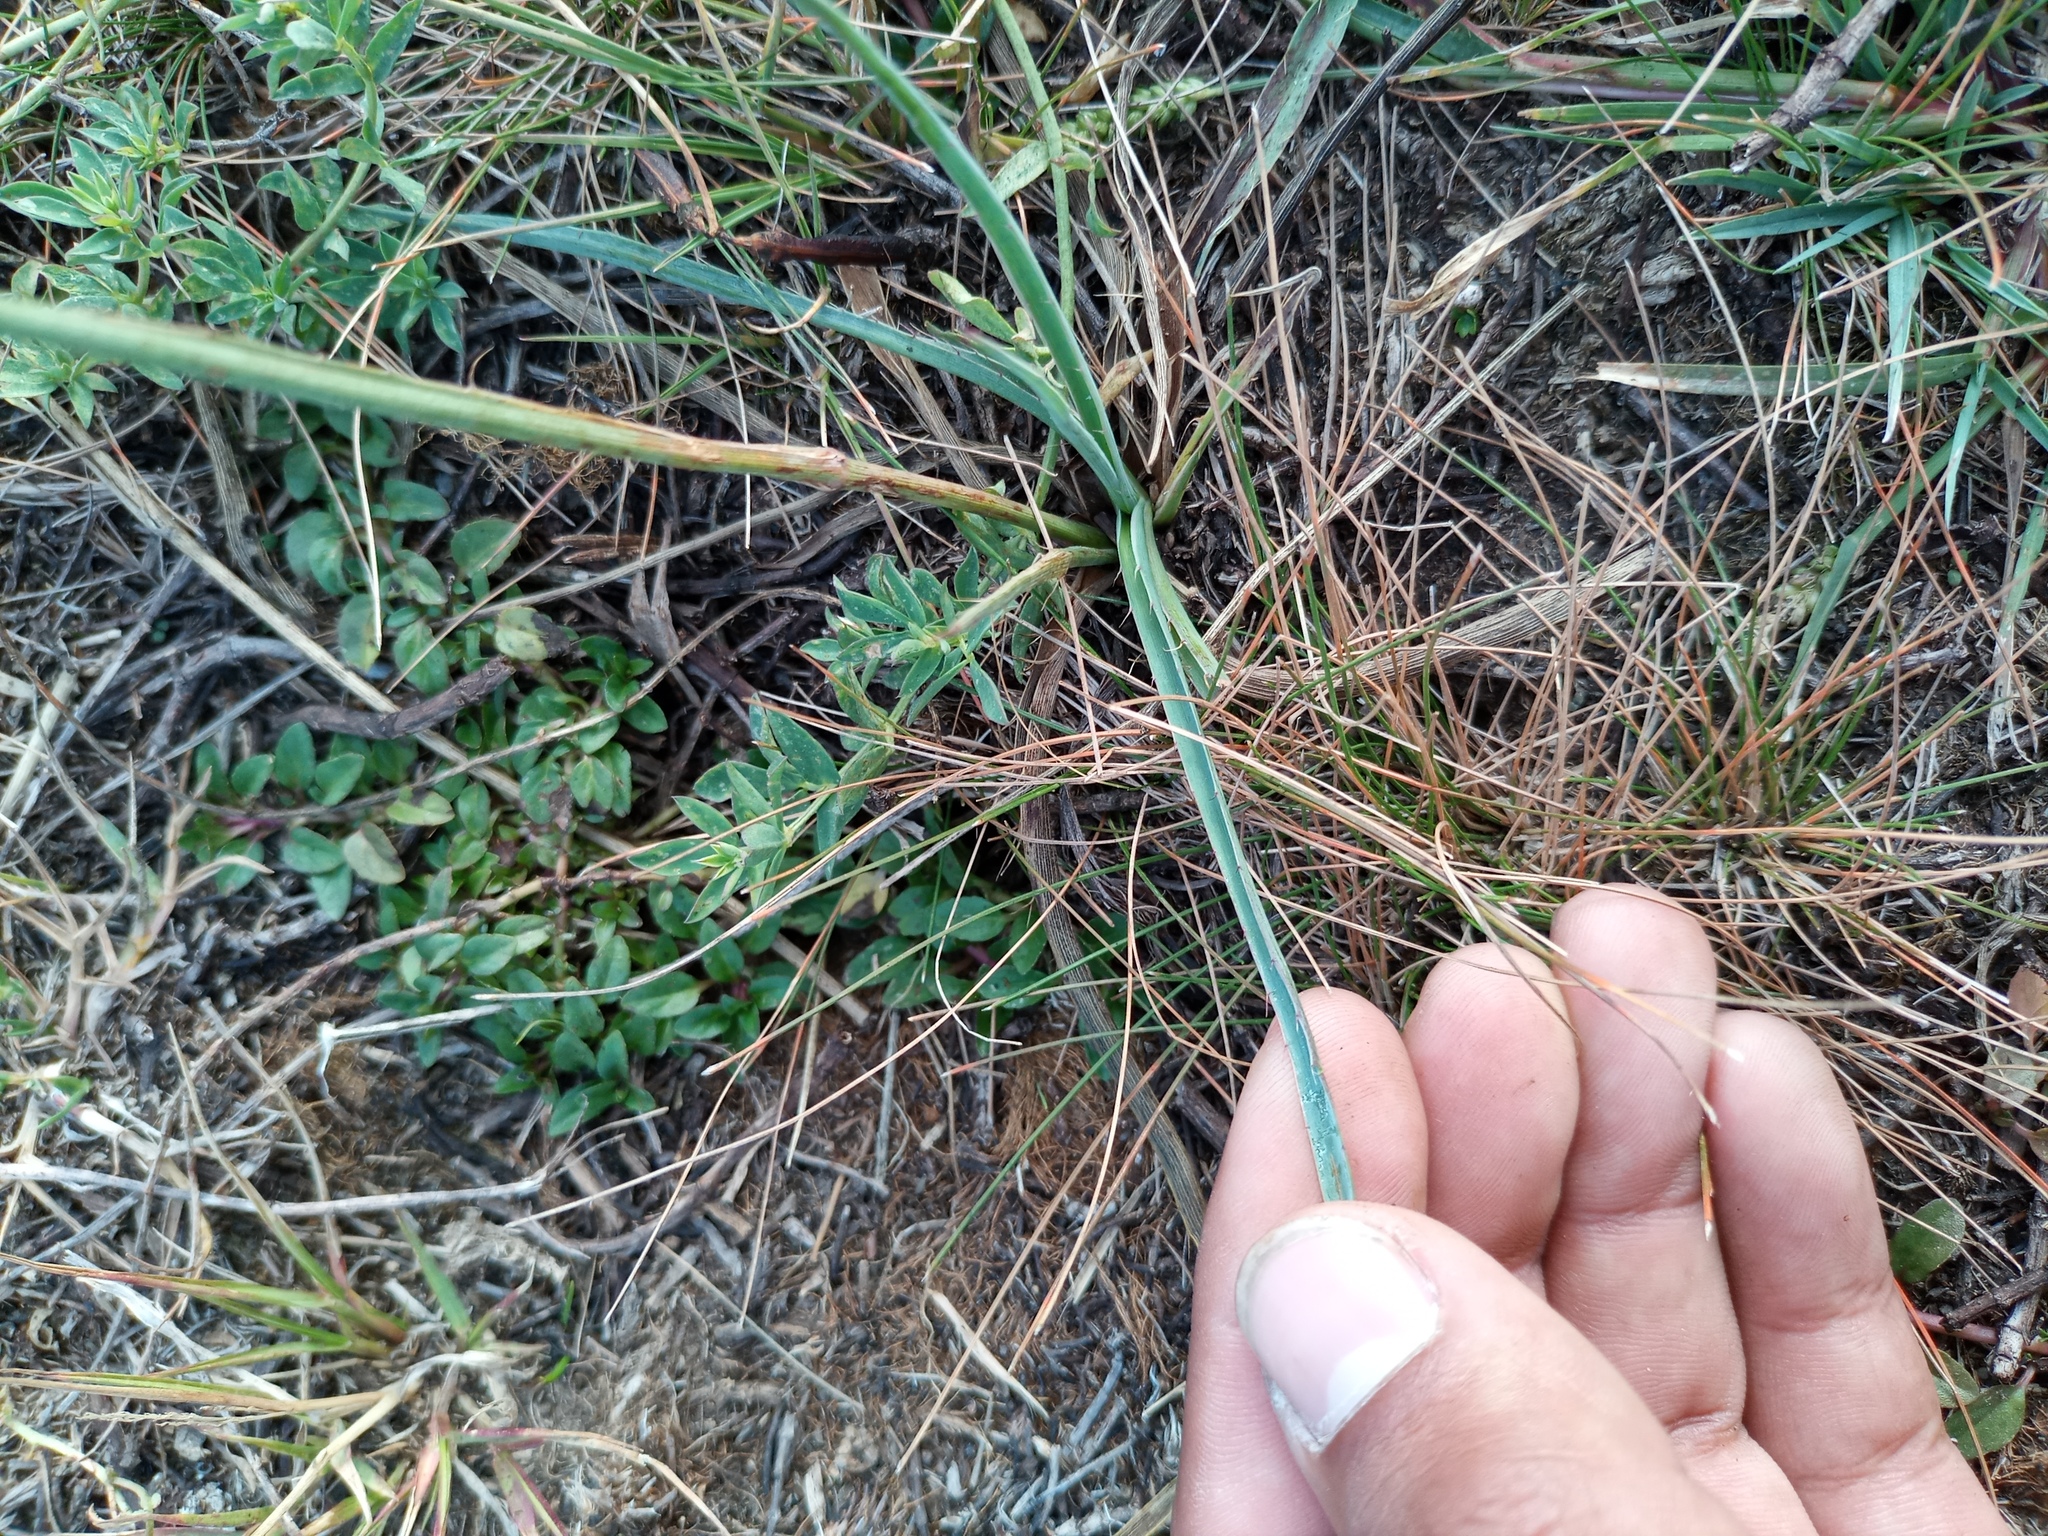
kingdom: Plantae
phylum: Tracheophyta
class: Magnoliopsida
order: Apiales
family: Apiaceae
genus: Eryngium
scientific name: Eryngium ebracteatum
